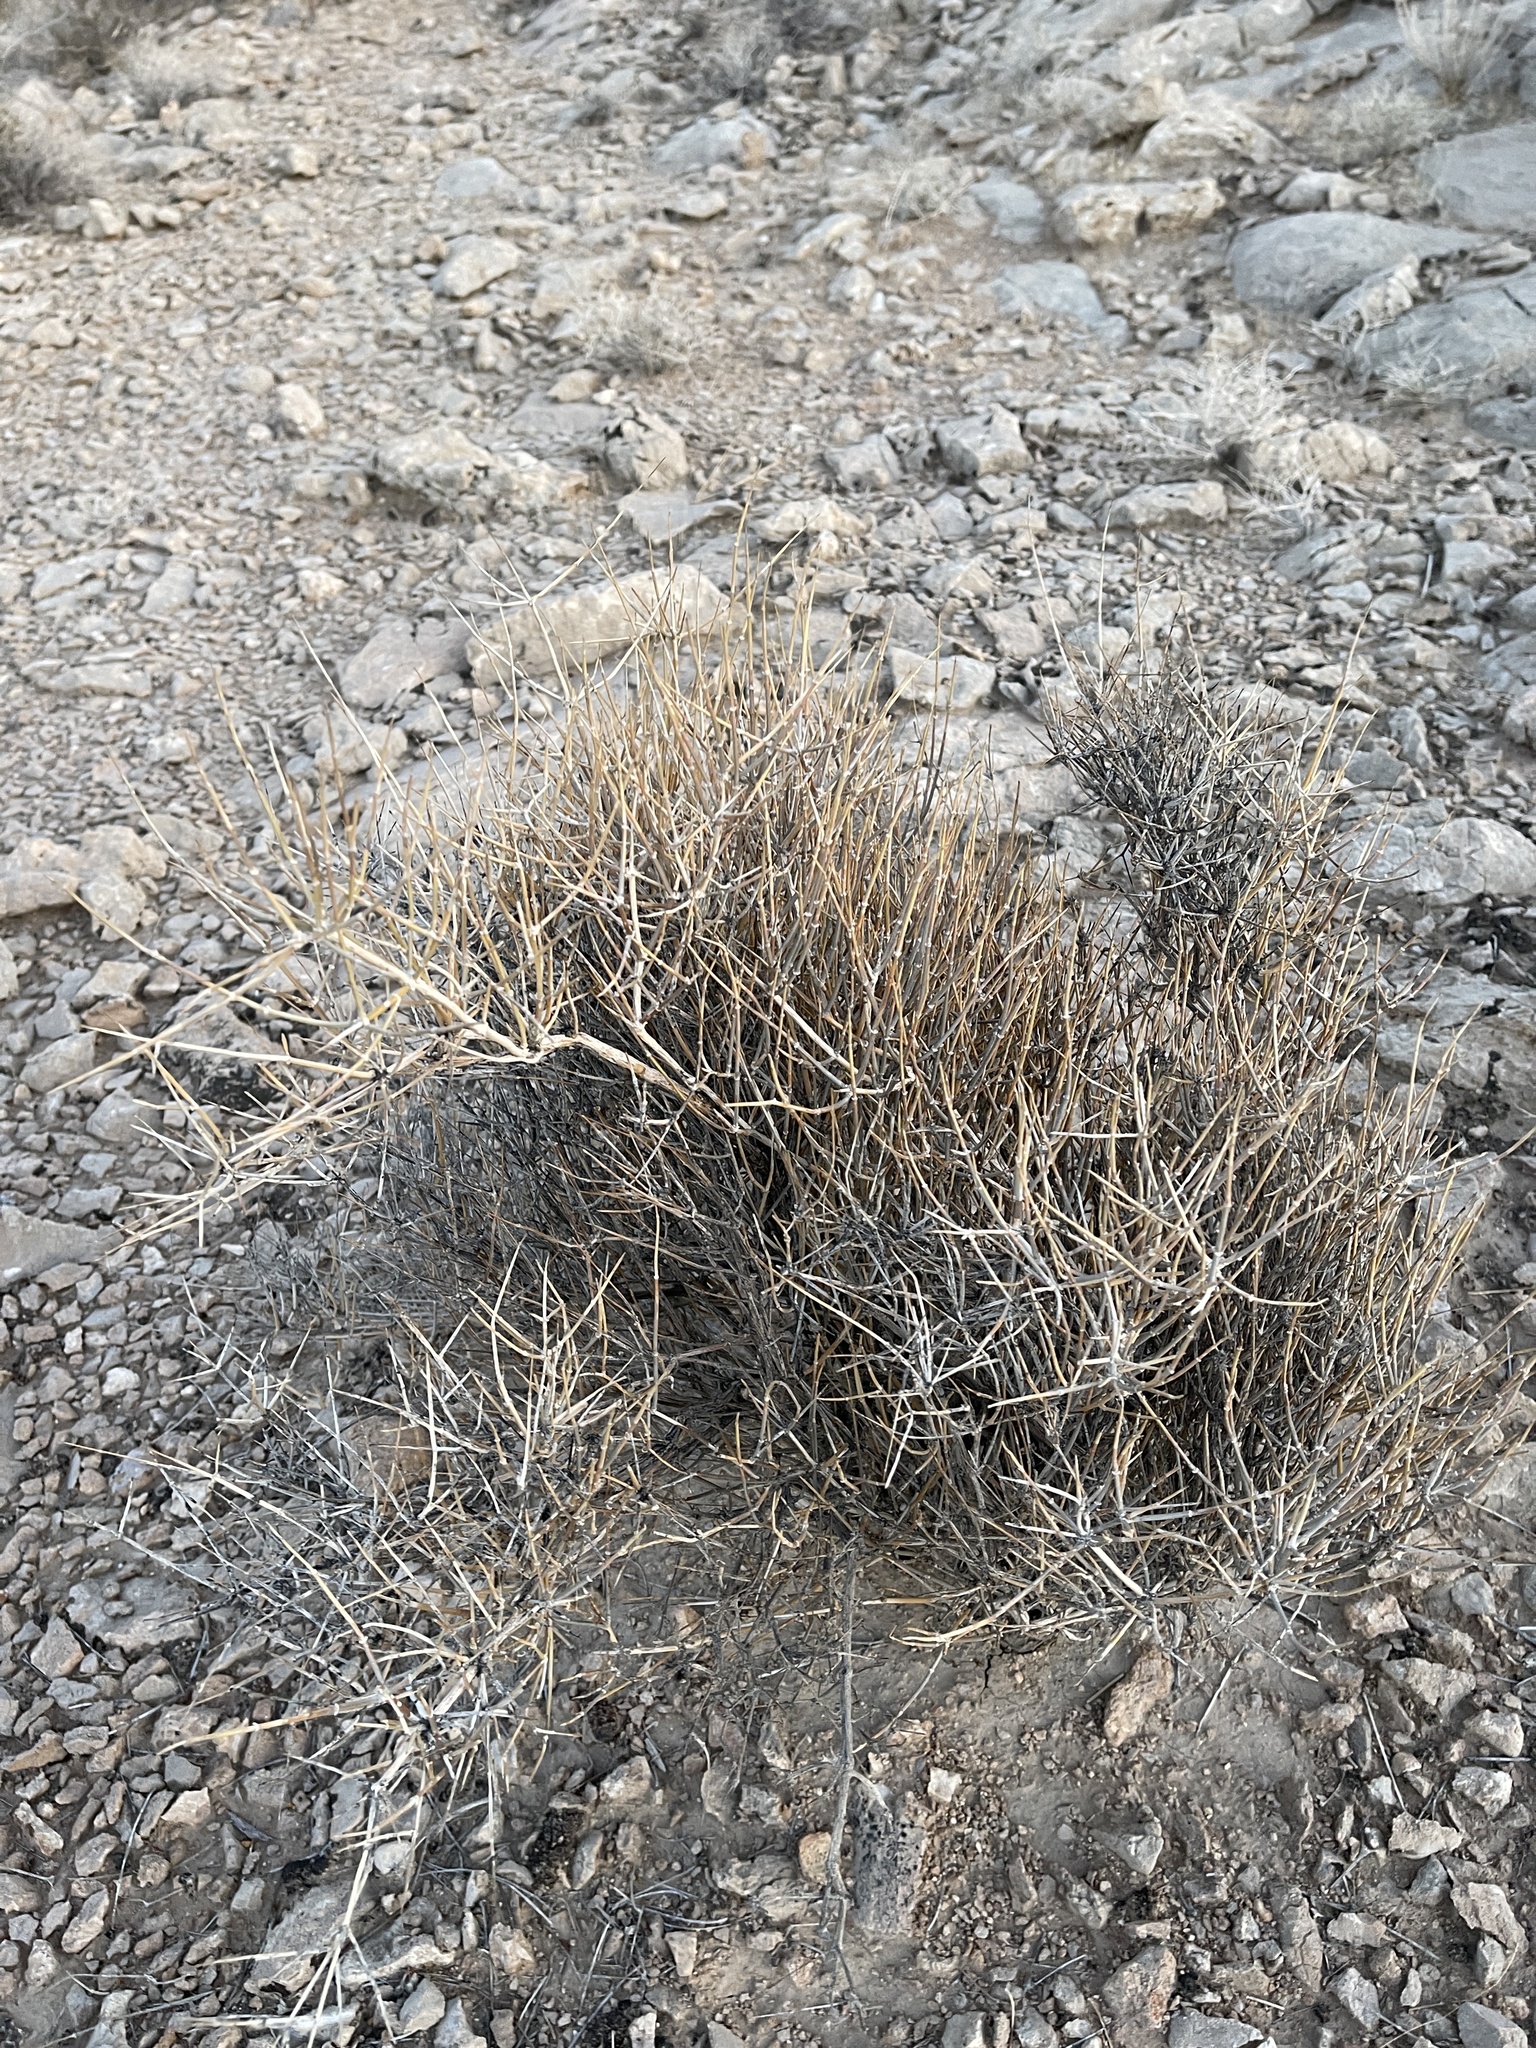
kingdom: Plantae
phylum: Tracheophyta
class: Gnetopsida
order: Ephedrales
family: Ephedraceae
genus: Ephedra
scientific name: Ephedra nevadensis
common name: Gray ephedra
